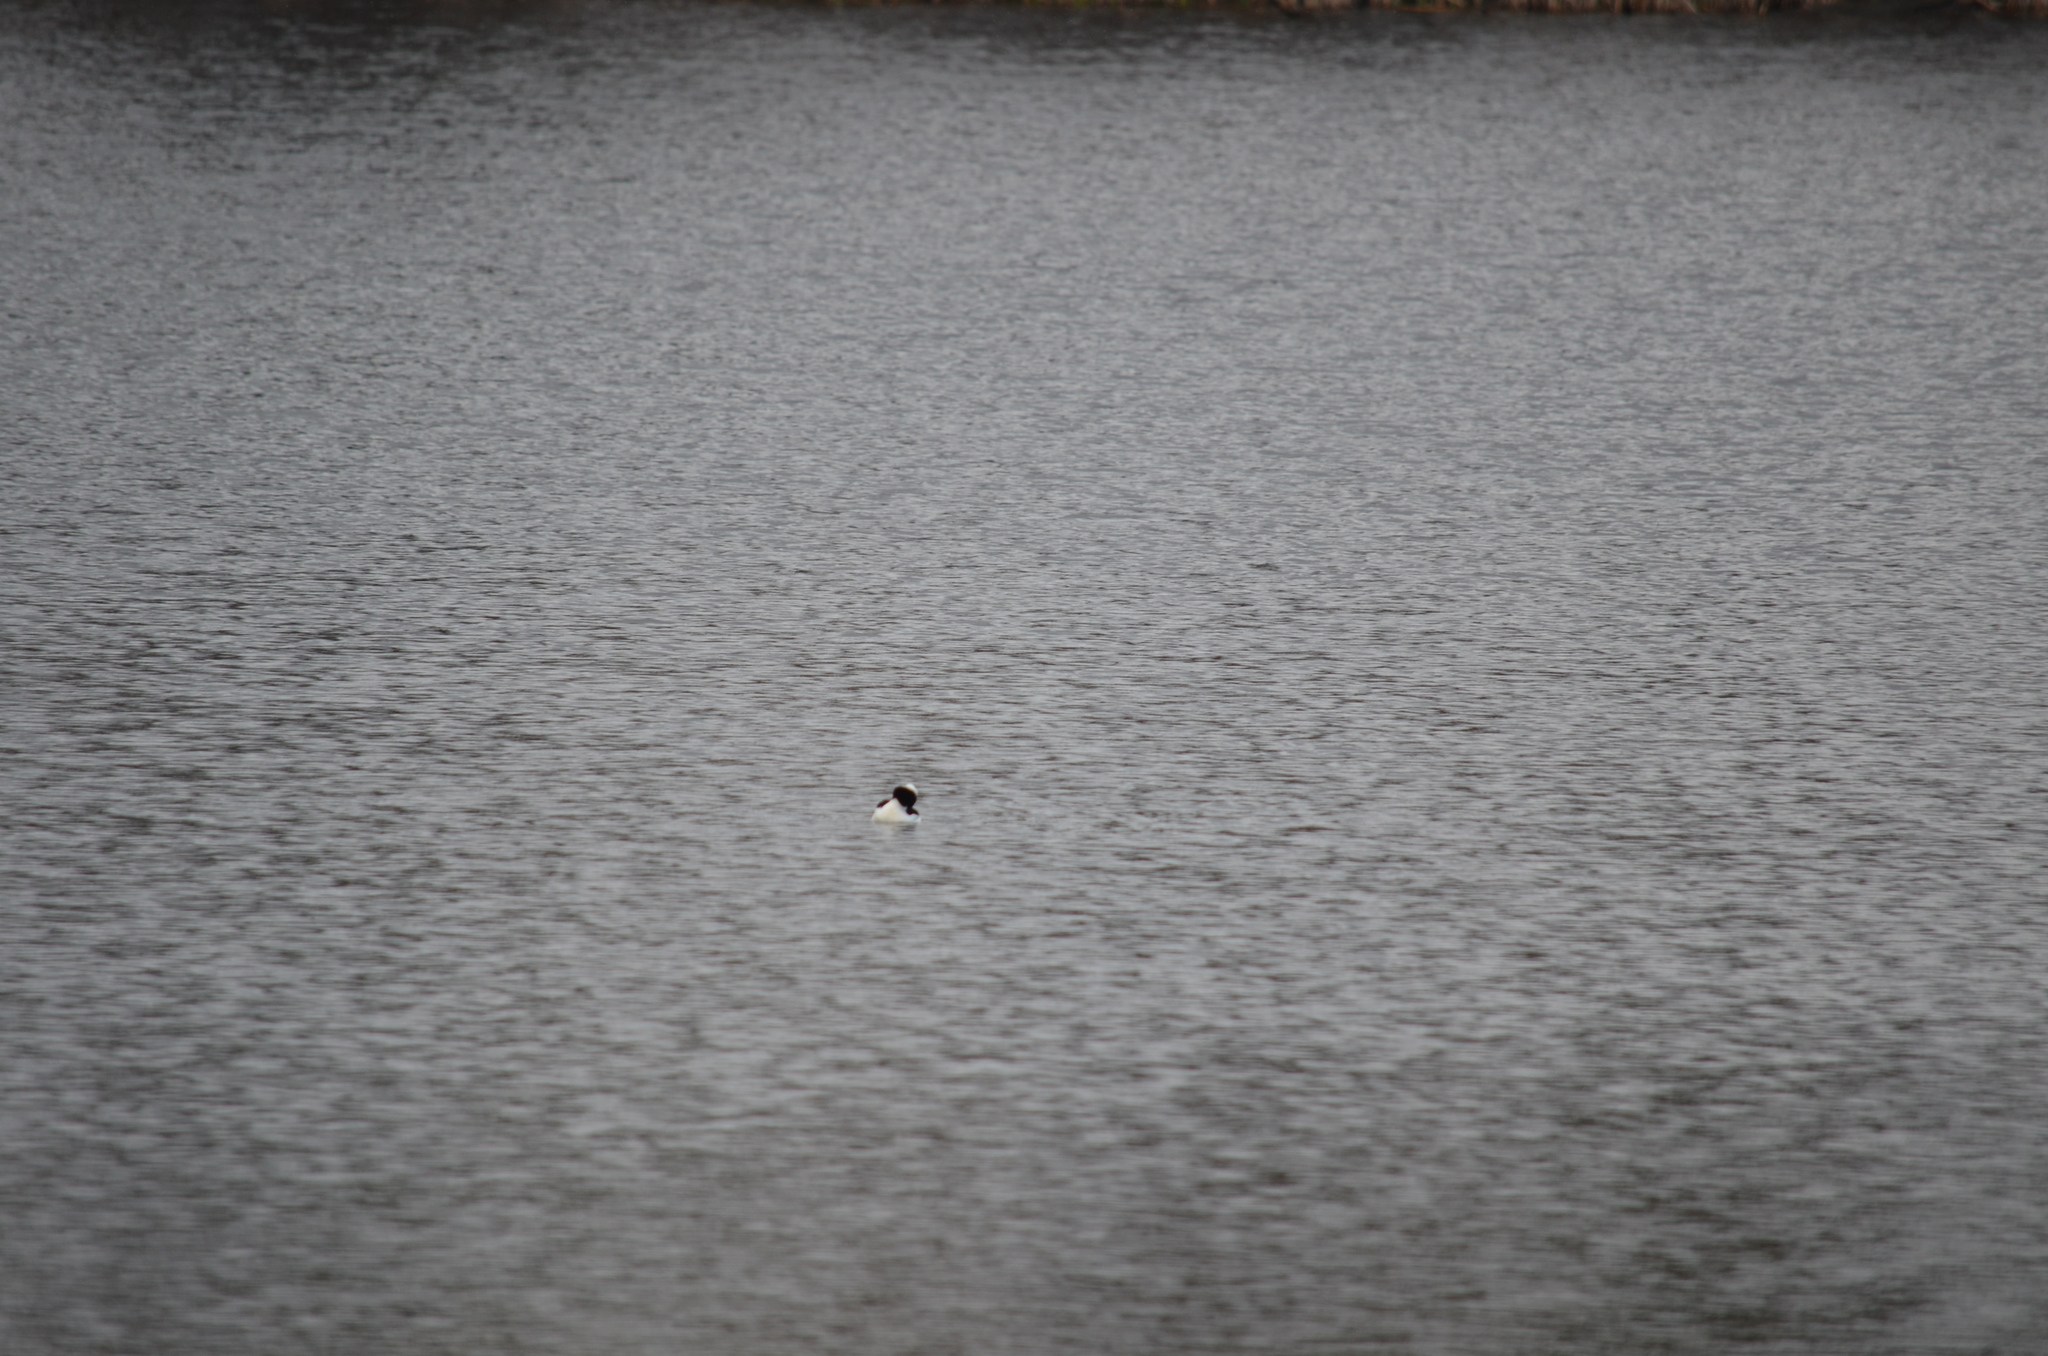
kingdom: Animalia
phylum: Chordata
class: Aves
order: Anseriformes
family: Anatidae
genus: Bucephala
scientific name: Bucephala albeola
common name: Bufflehead
